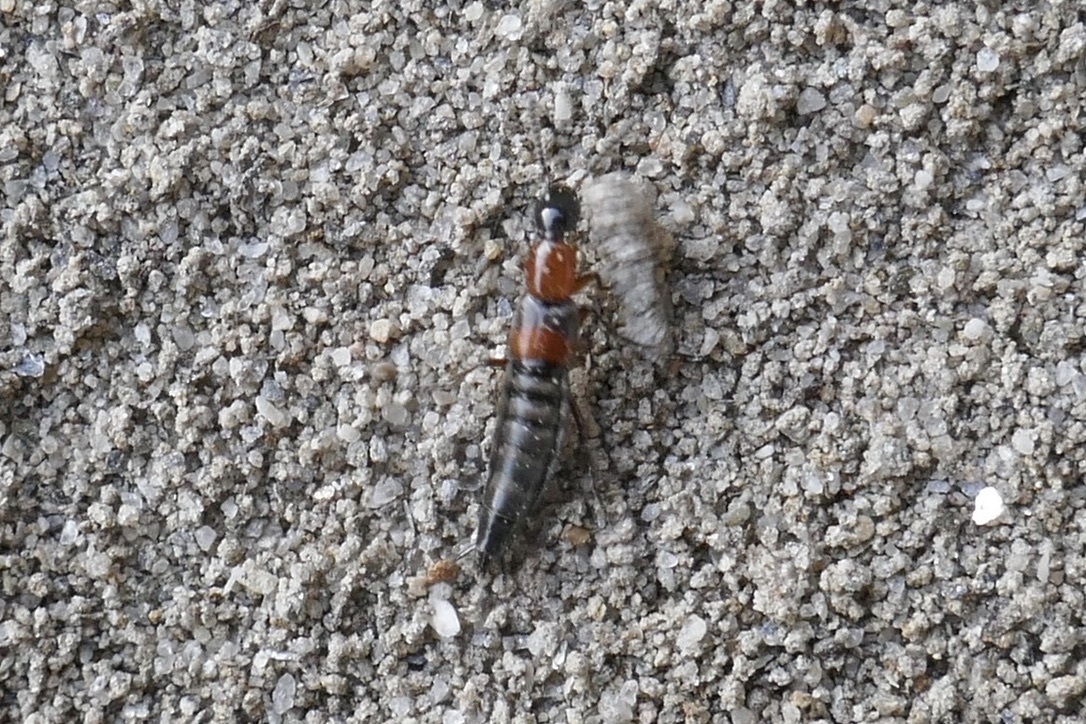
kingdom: Animalia
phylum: Arthropoda
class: Insecta
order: Coleoptera
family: Staphylinidae
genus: Rabigus
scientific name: Rabigus tenuis
